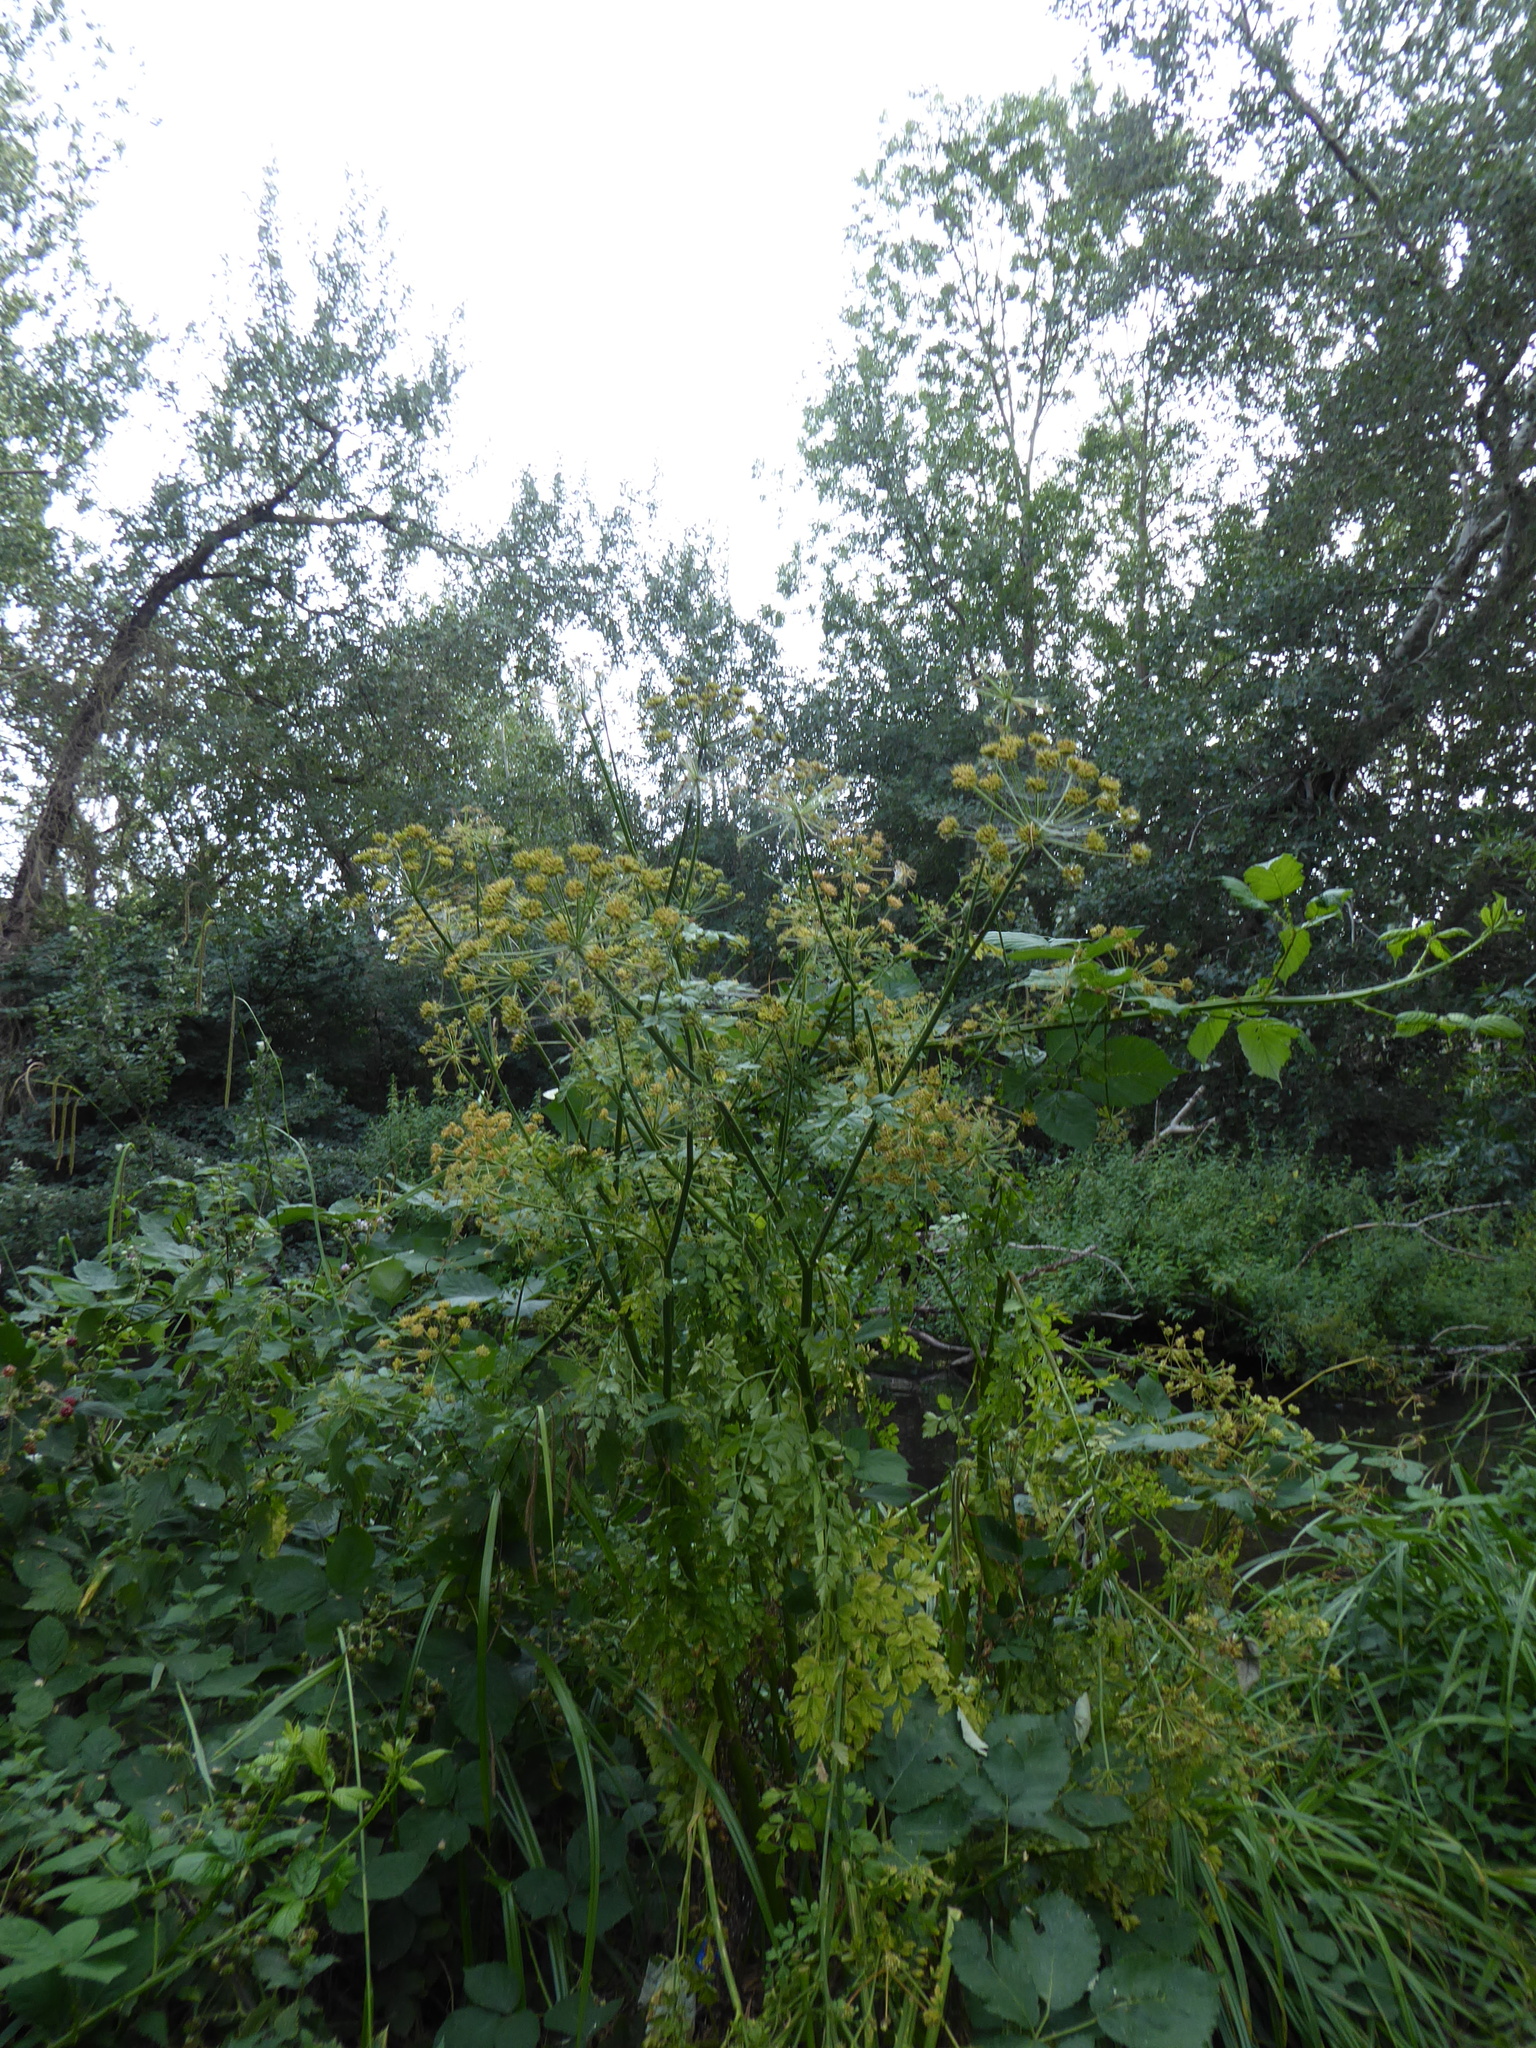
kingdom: Plantae
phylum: Tracheophyta
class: Magnoliopsida
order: Apiales
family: Apiaceae
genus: Oenanthe
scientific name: Oenanthe crocata
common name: Hemlock water-dropwort
